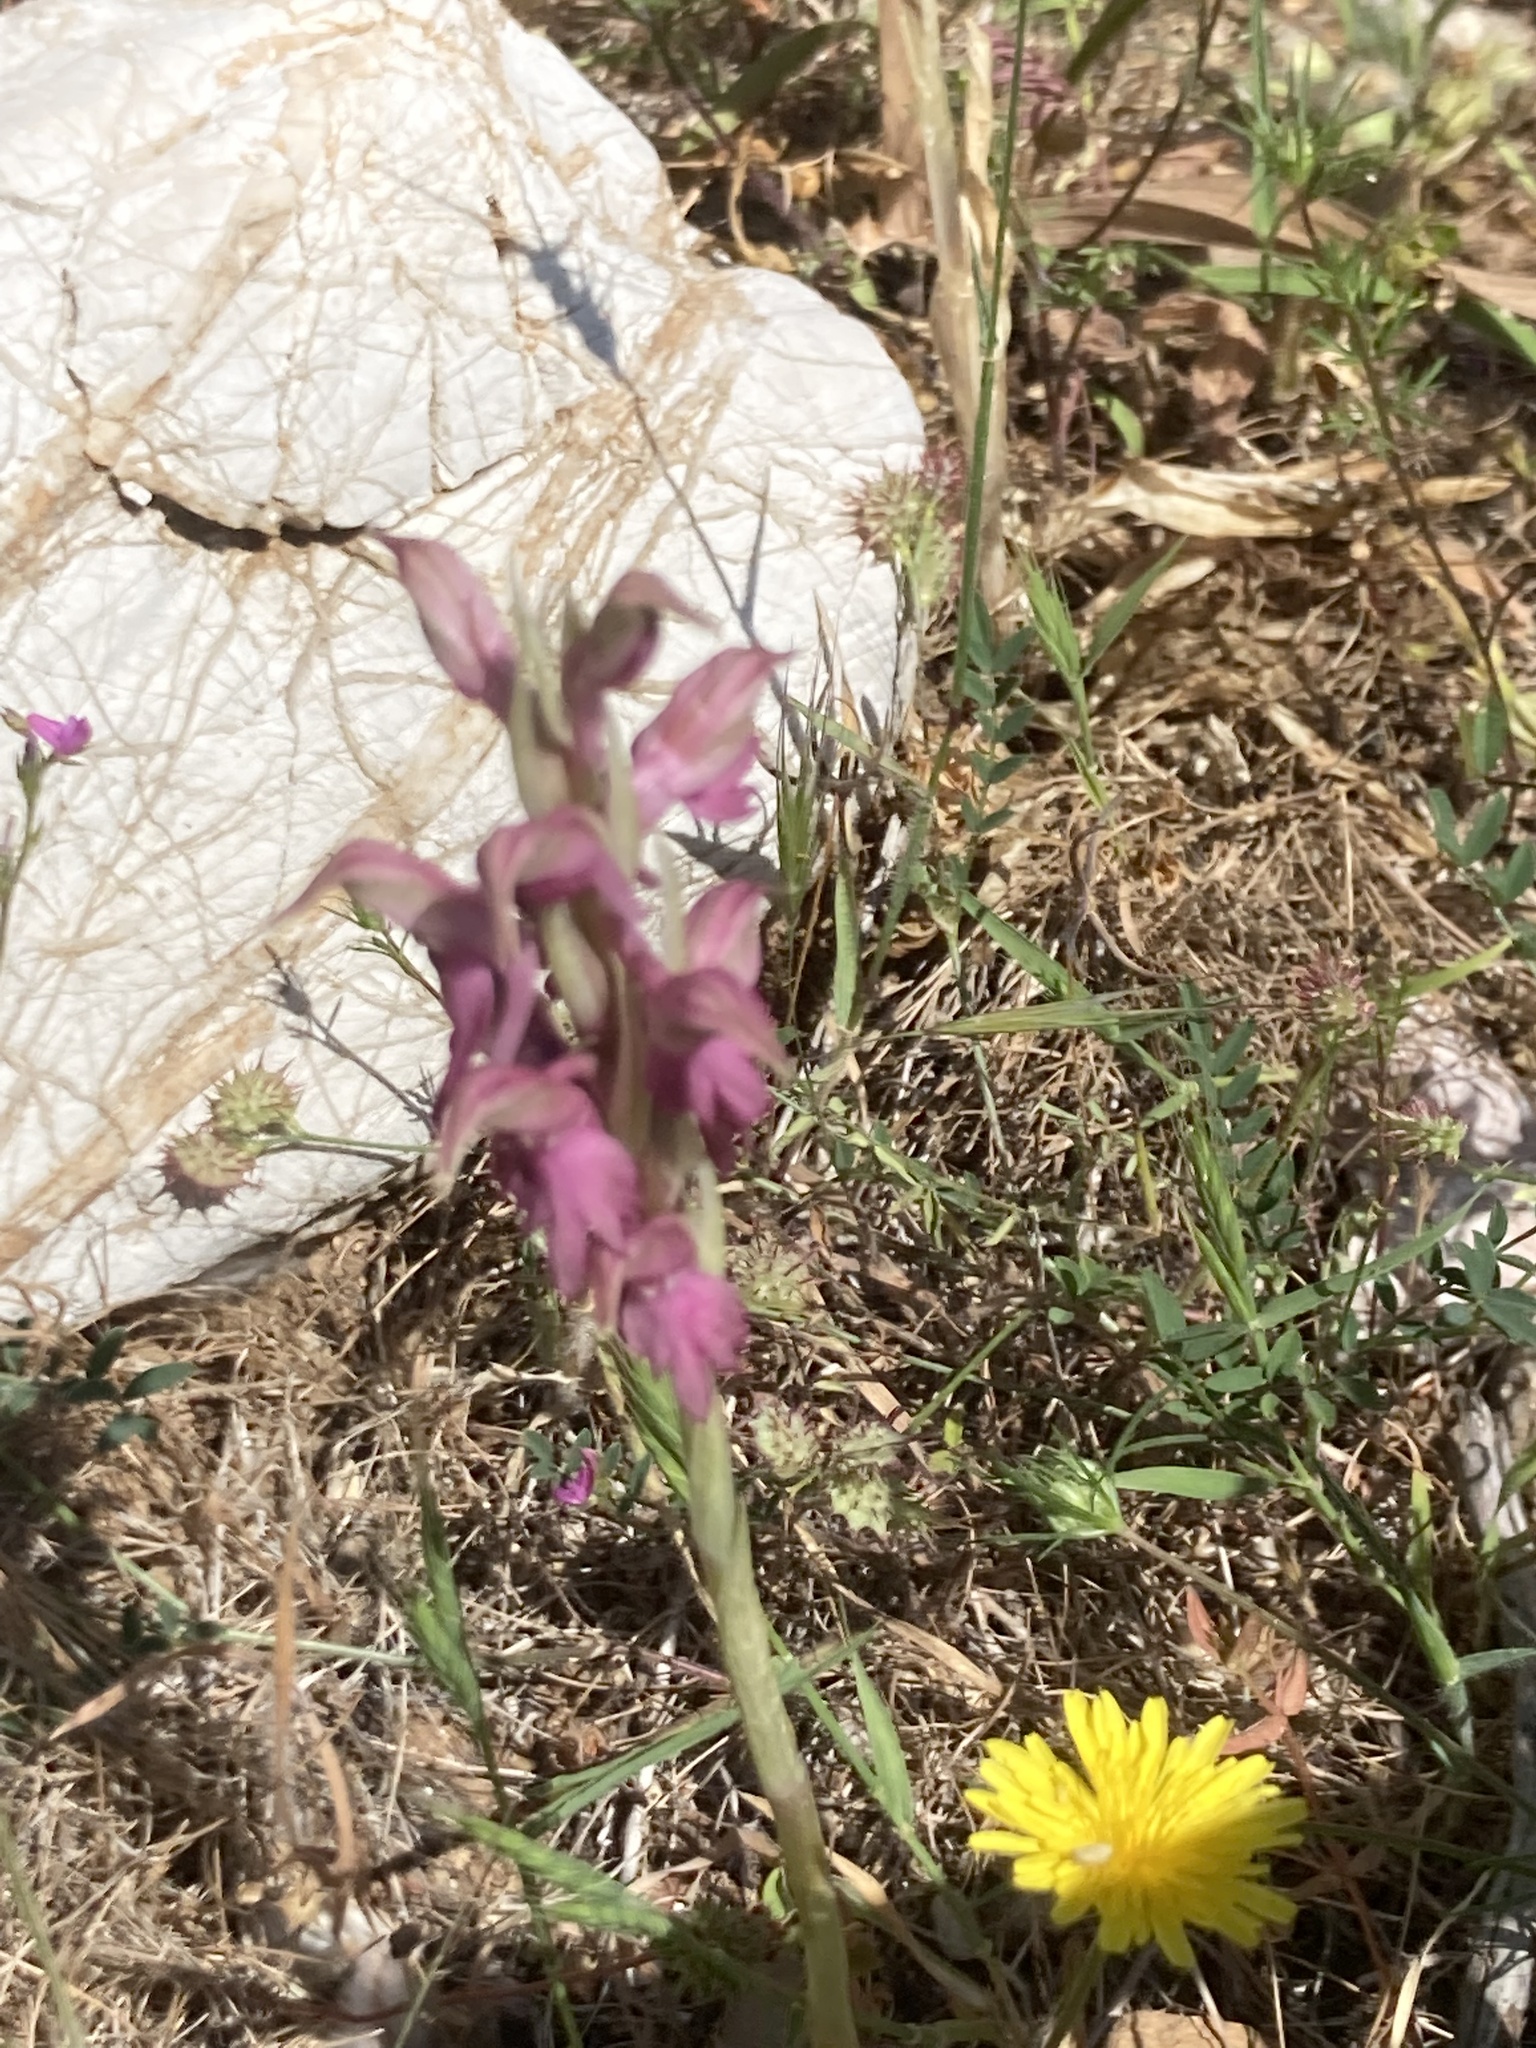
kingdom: Plantae
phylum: Tracheophyta
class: Liliopsida
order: Asparagales
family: Orchidaceae
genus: Anacamptis
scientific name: Anacamptis sancta
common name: Holy orchid
